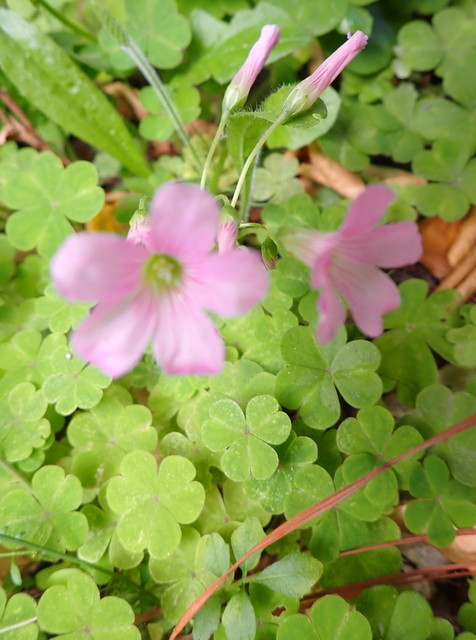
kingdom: Plantae
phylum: Tracheophyta
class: Magnoliopsida
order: Oxalidales
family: Oxalidaceae
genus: Oxalis
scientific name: Oxalis debilis
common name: Large-flowered pink-sorrel
